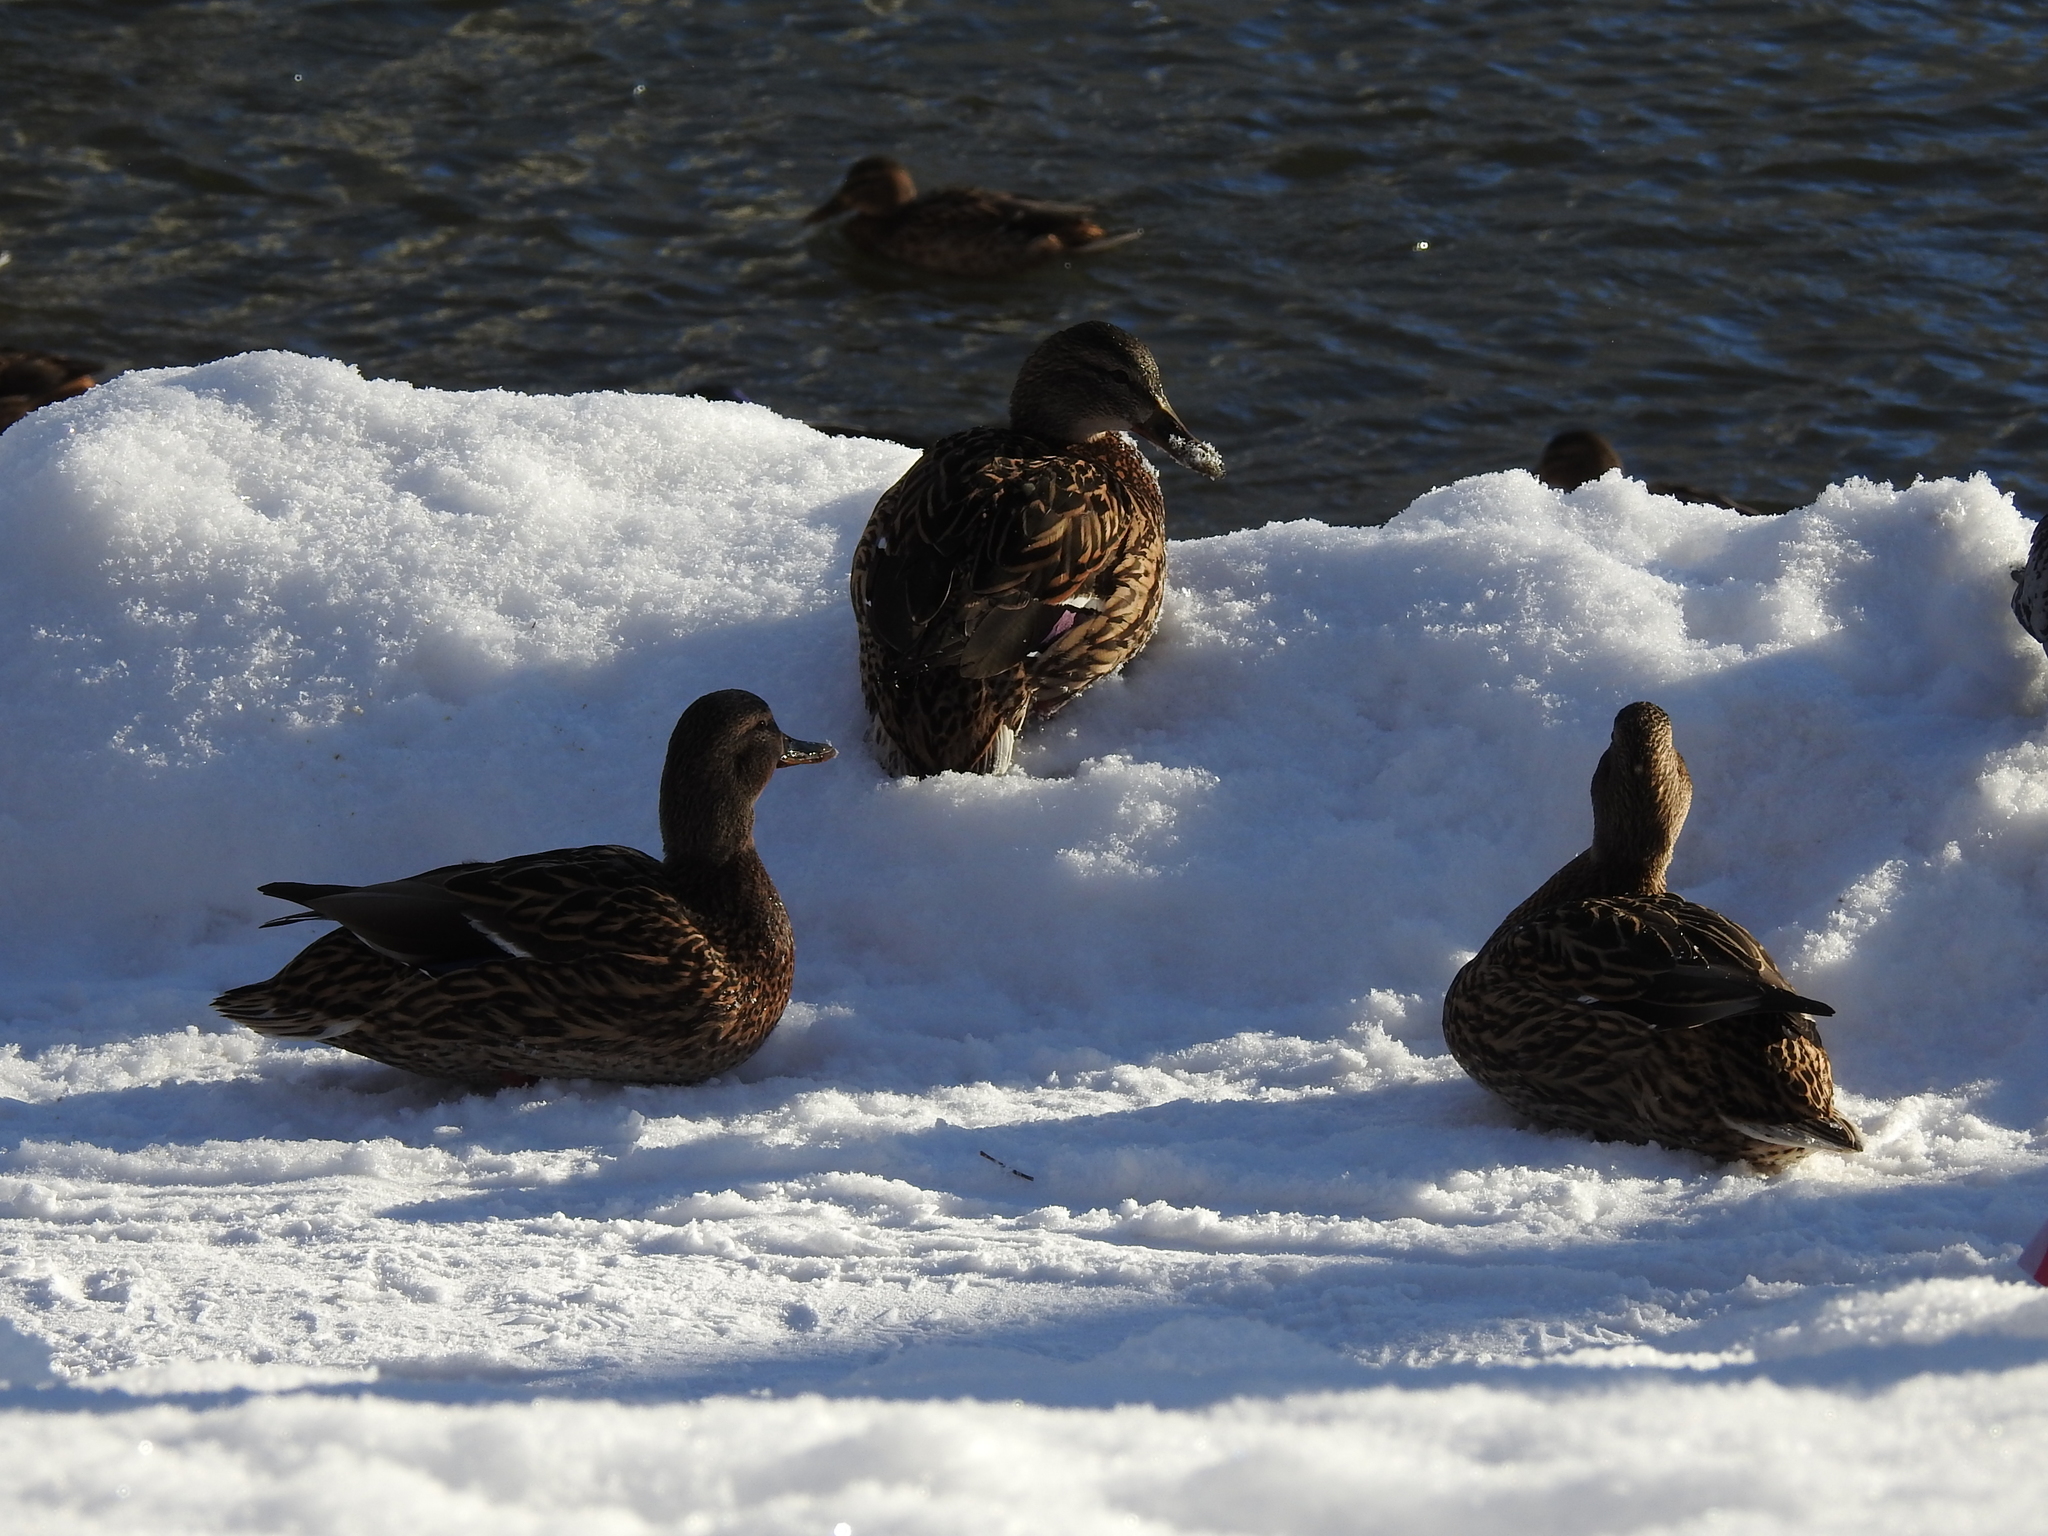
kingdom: Animalia
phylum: Chordata
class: Aves
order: Anseriformes
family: Anatidae
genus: Anas
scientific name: Anas platyrhynchos
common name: Mallard
